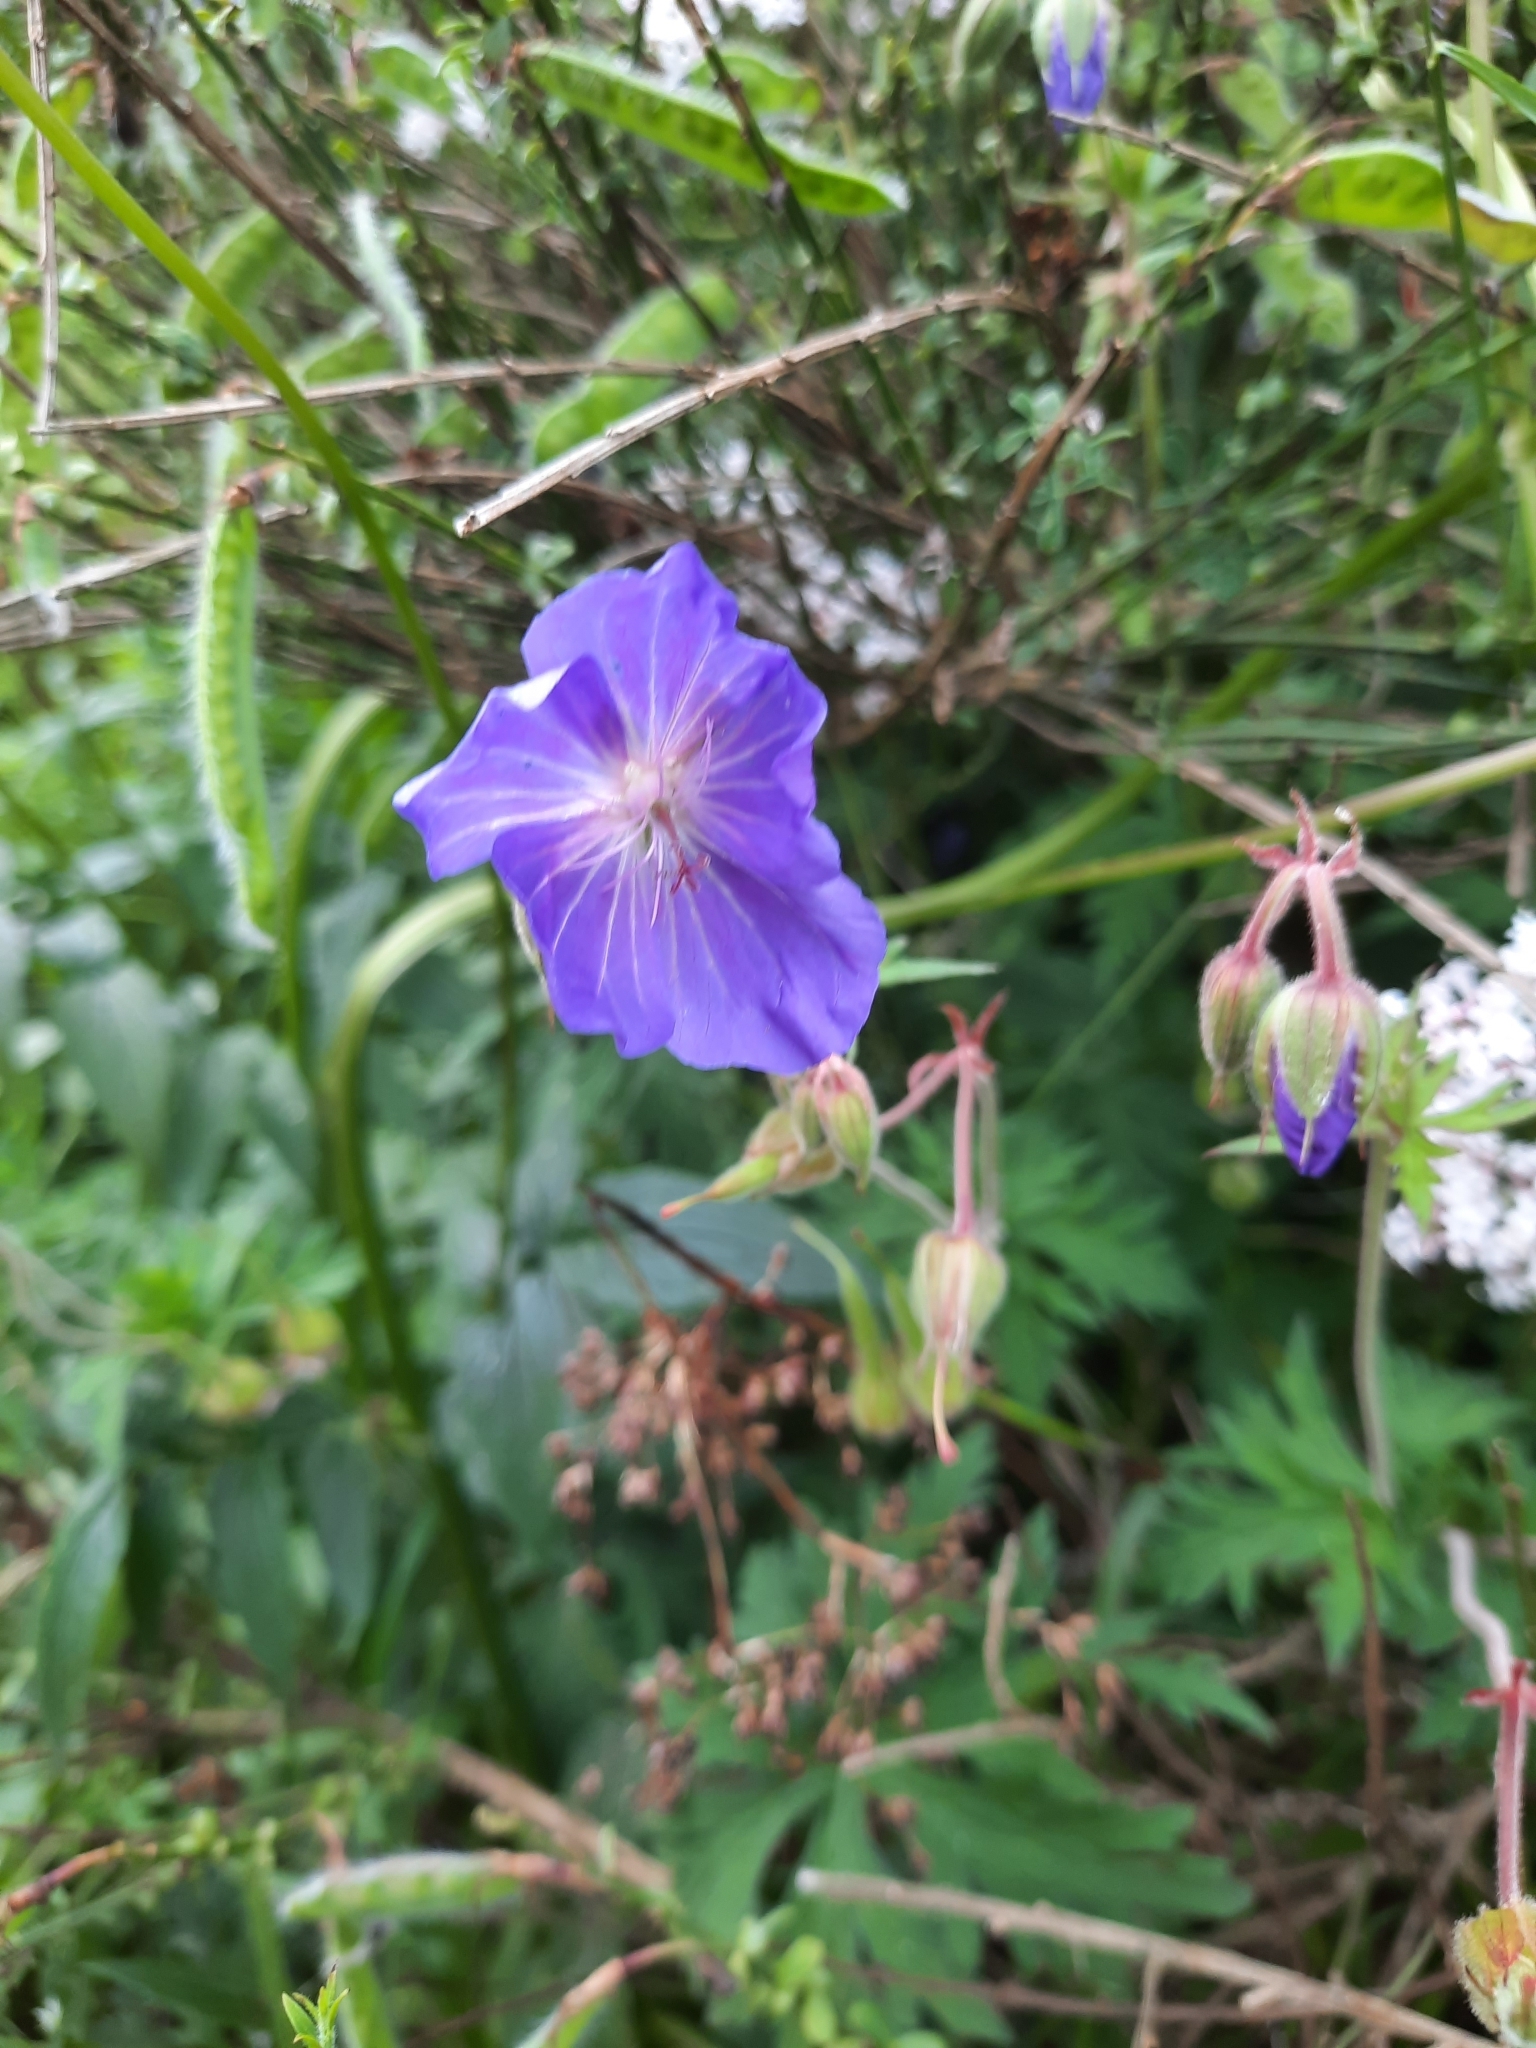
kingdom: Plantae
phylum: Tracheophyta
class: Magnoliopsida
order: Geraniales
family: Geraniaceae
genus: Geranium
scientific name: Geranium pratense
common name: Meadow crane's-bill
